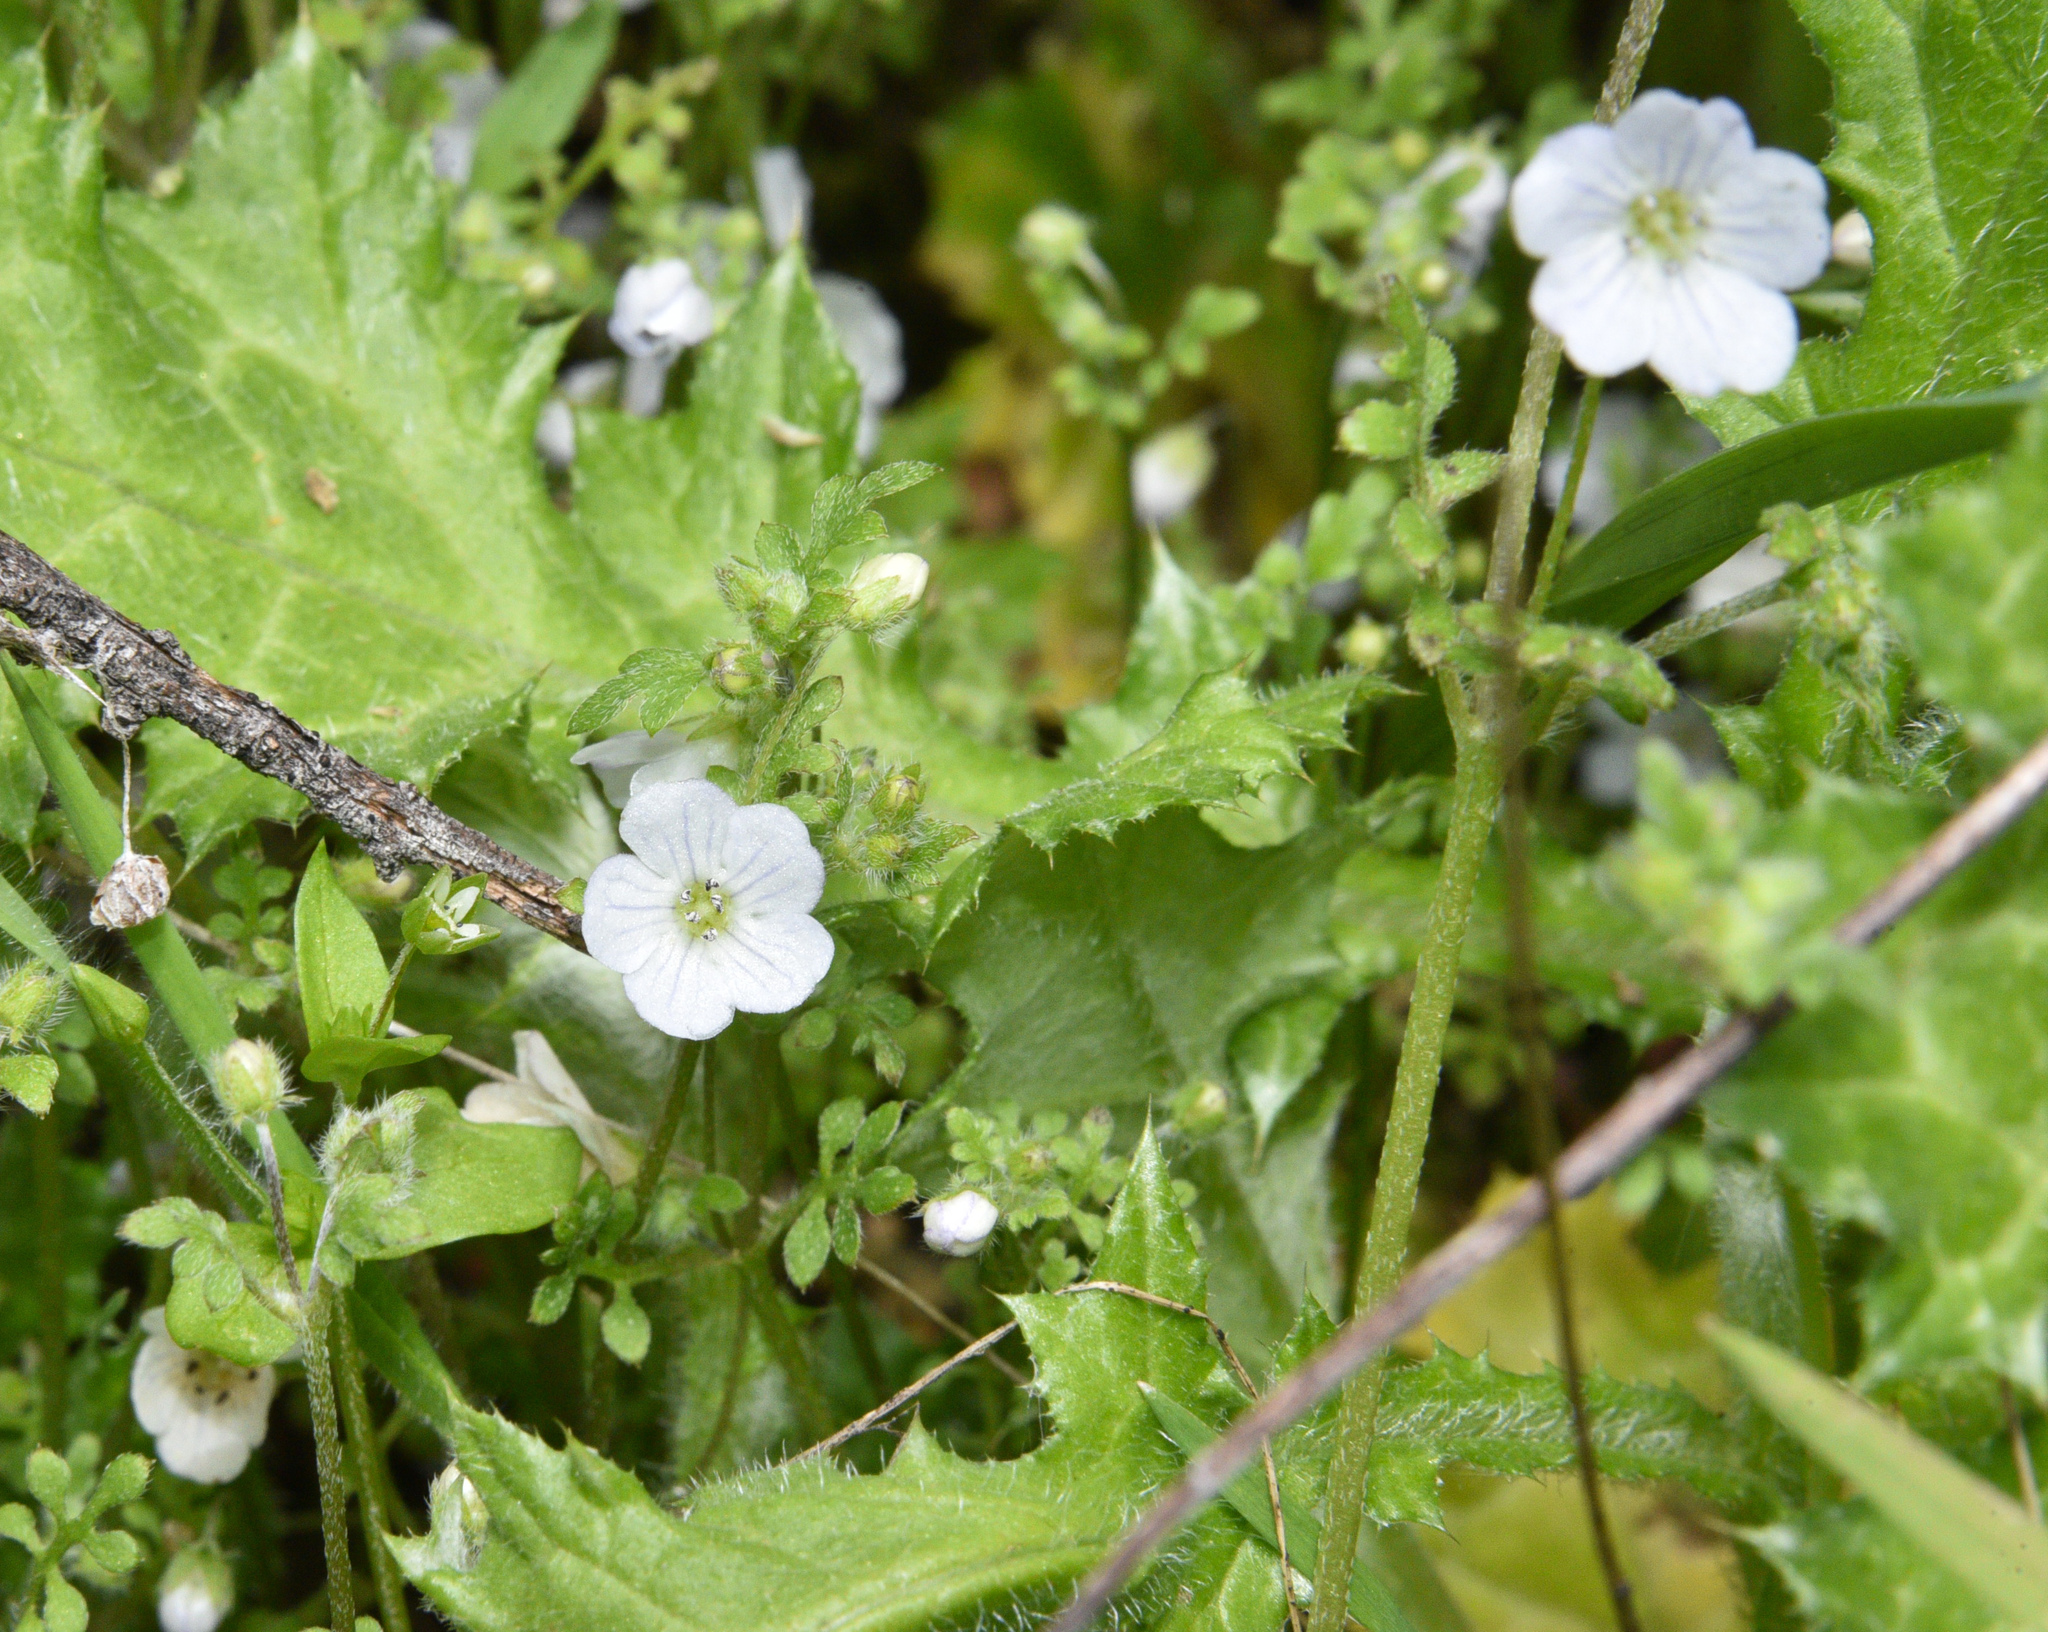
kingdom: Plantae
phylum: Tracheophyta
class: Magnoliopsida
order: Boraginales
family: Hydrophyllaceae
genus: Nemophila
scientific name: Nemophila heterophylla
